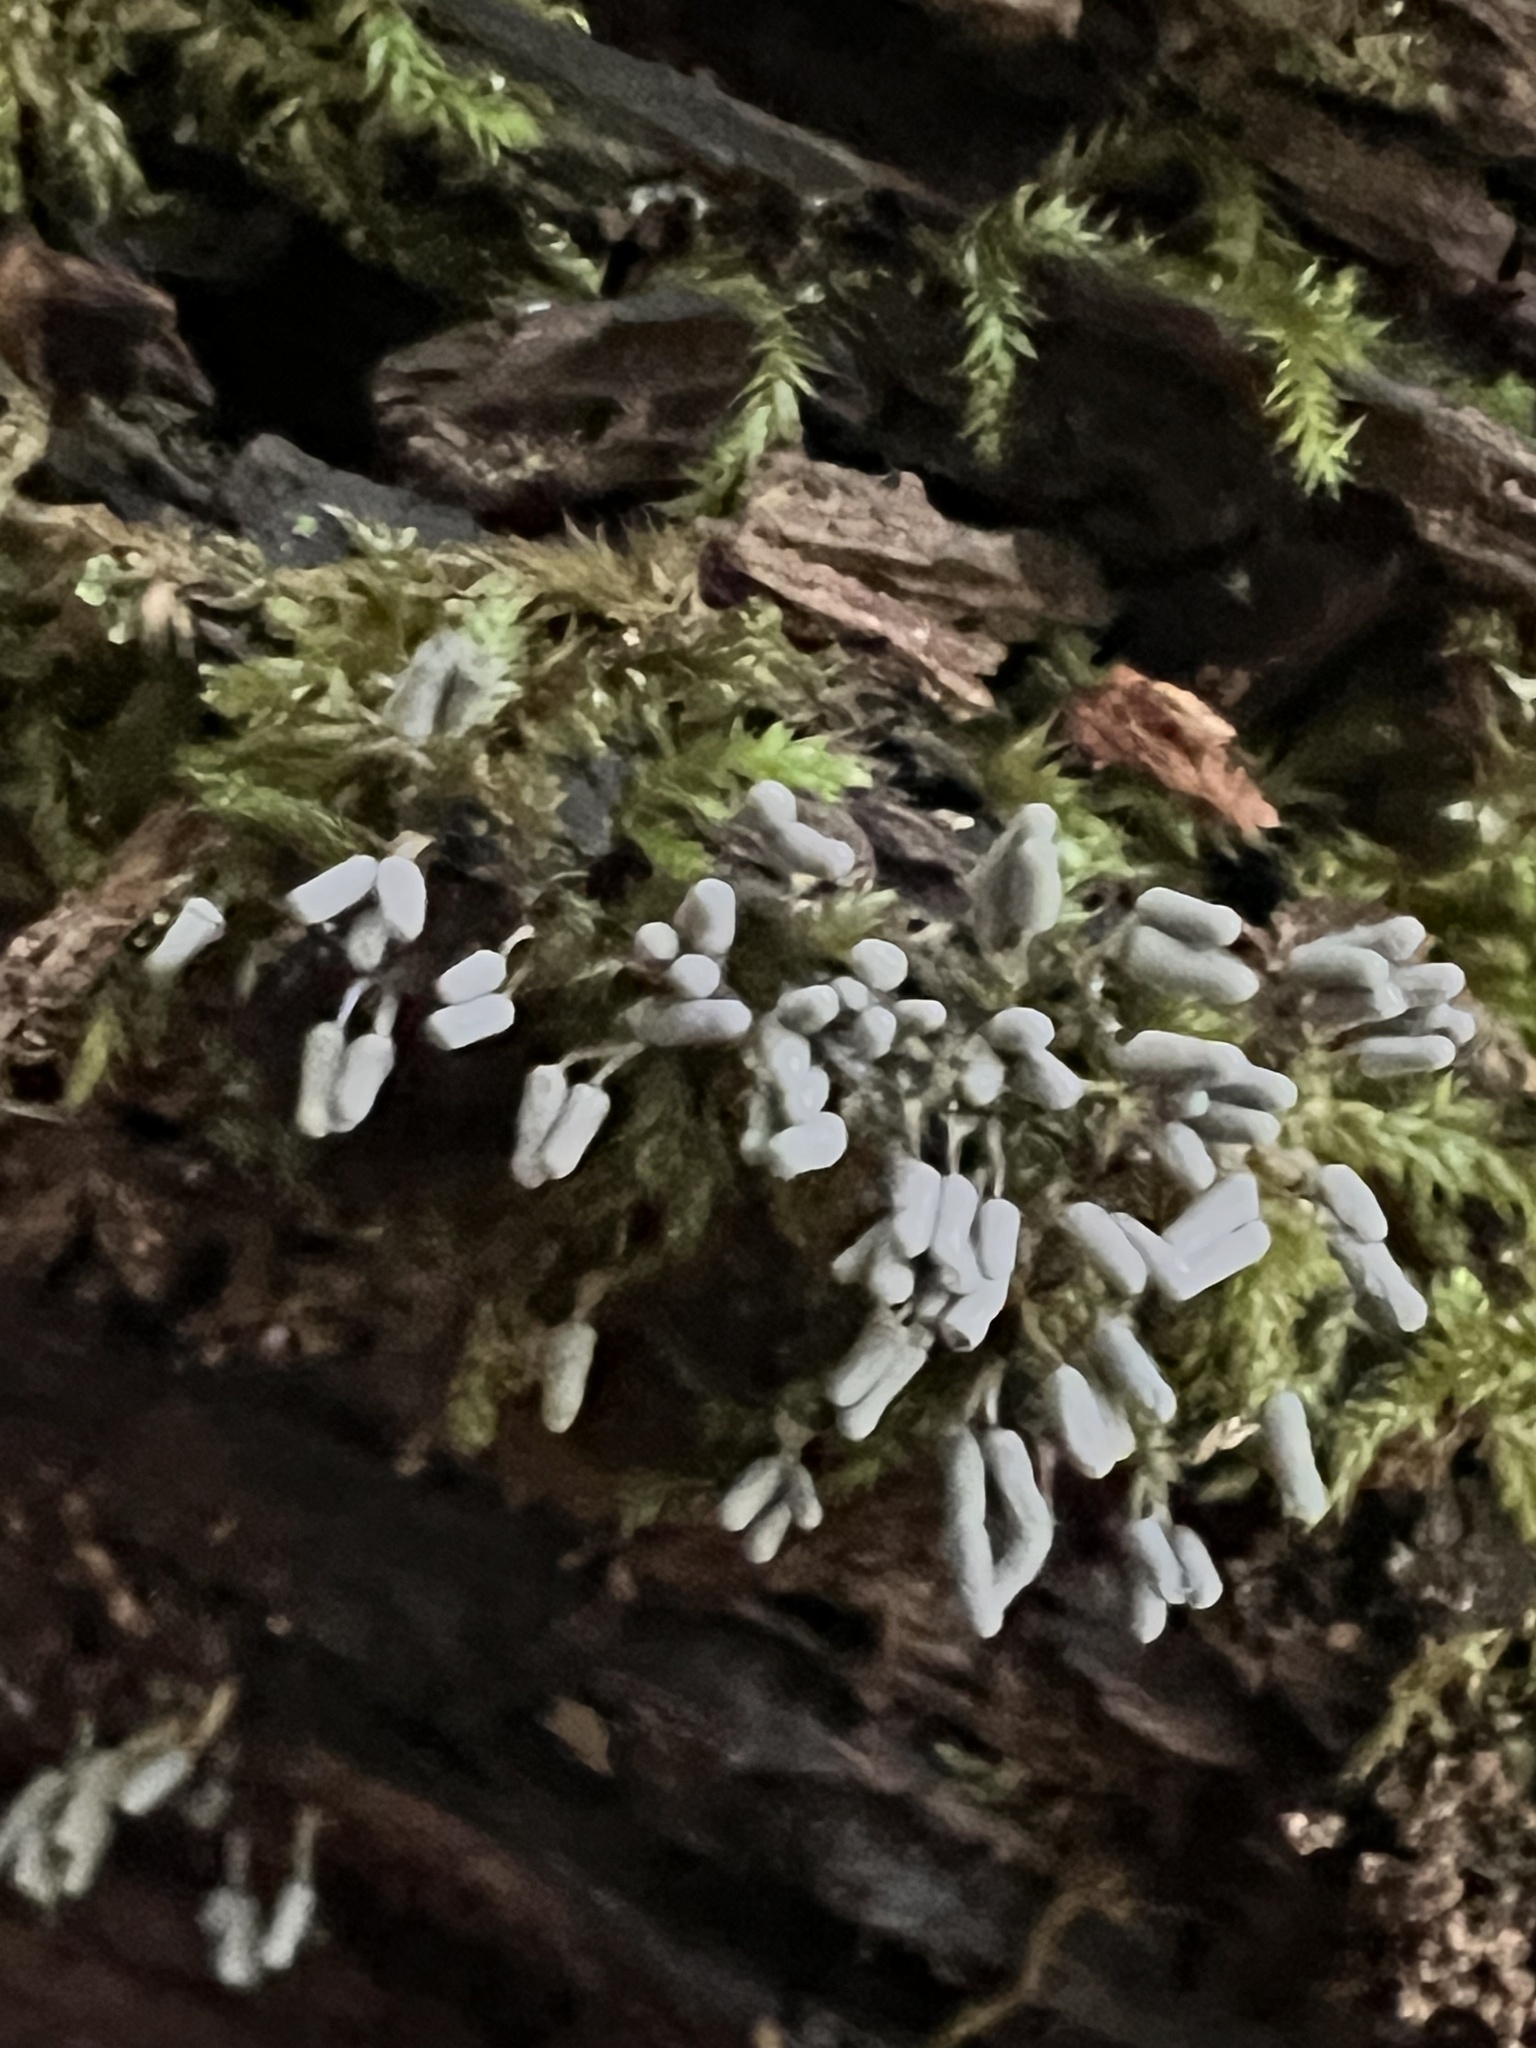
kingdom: Protozoa
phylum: Mycetozoa
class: Myxomycetes
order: Trichiales
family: Arcyriaceae
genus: Arcyria
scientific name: Arcyria cinerea
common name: White carnival candy slime mold
